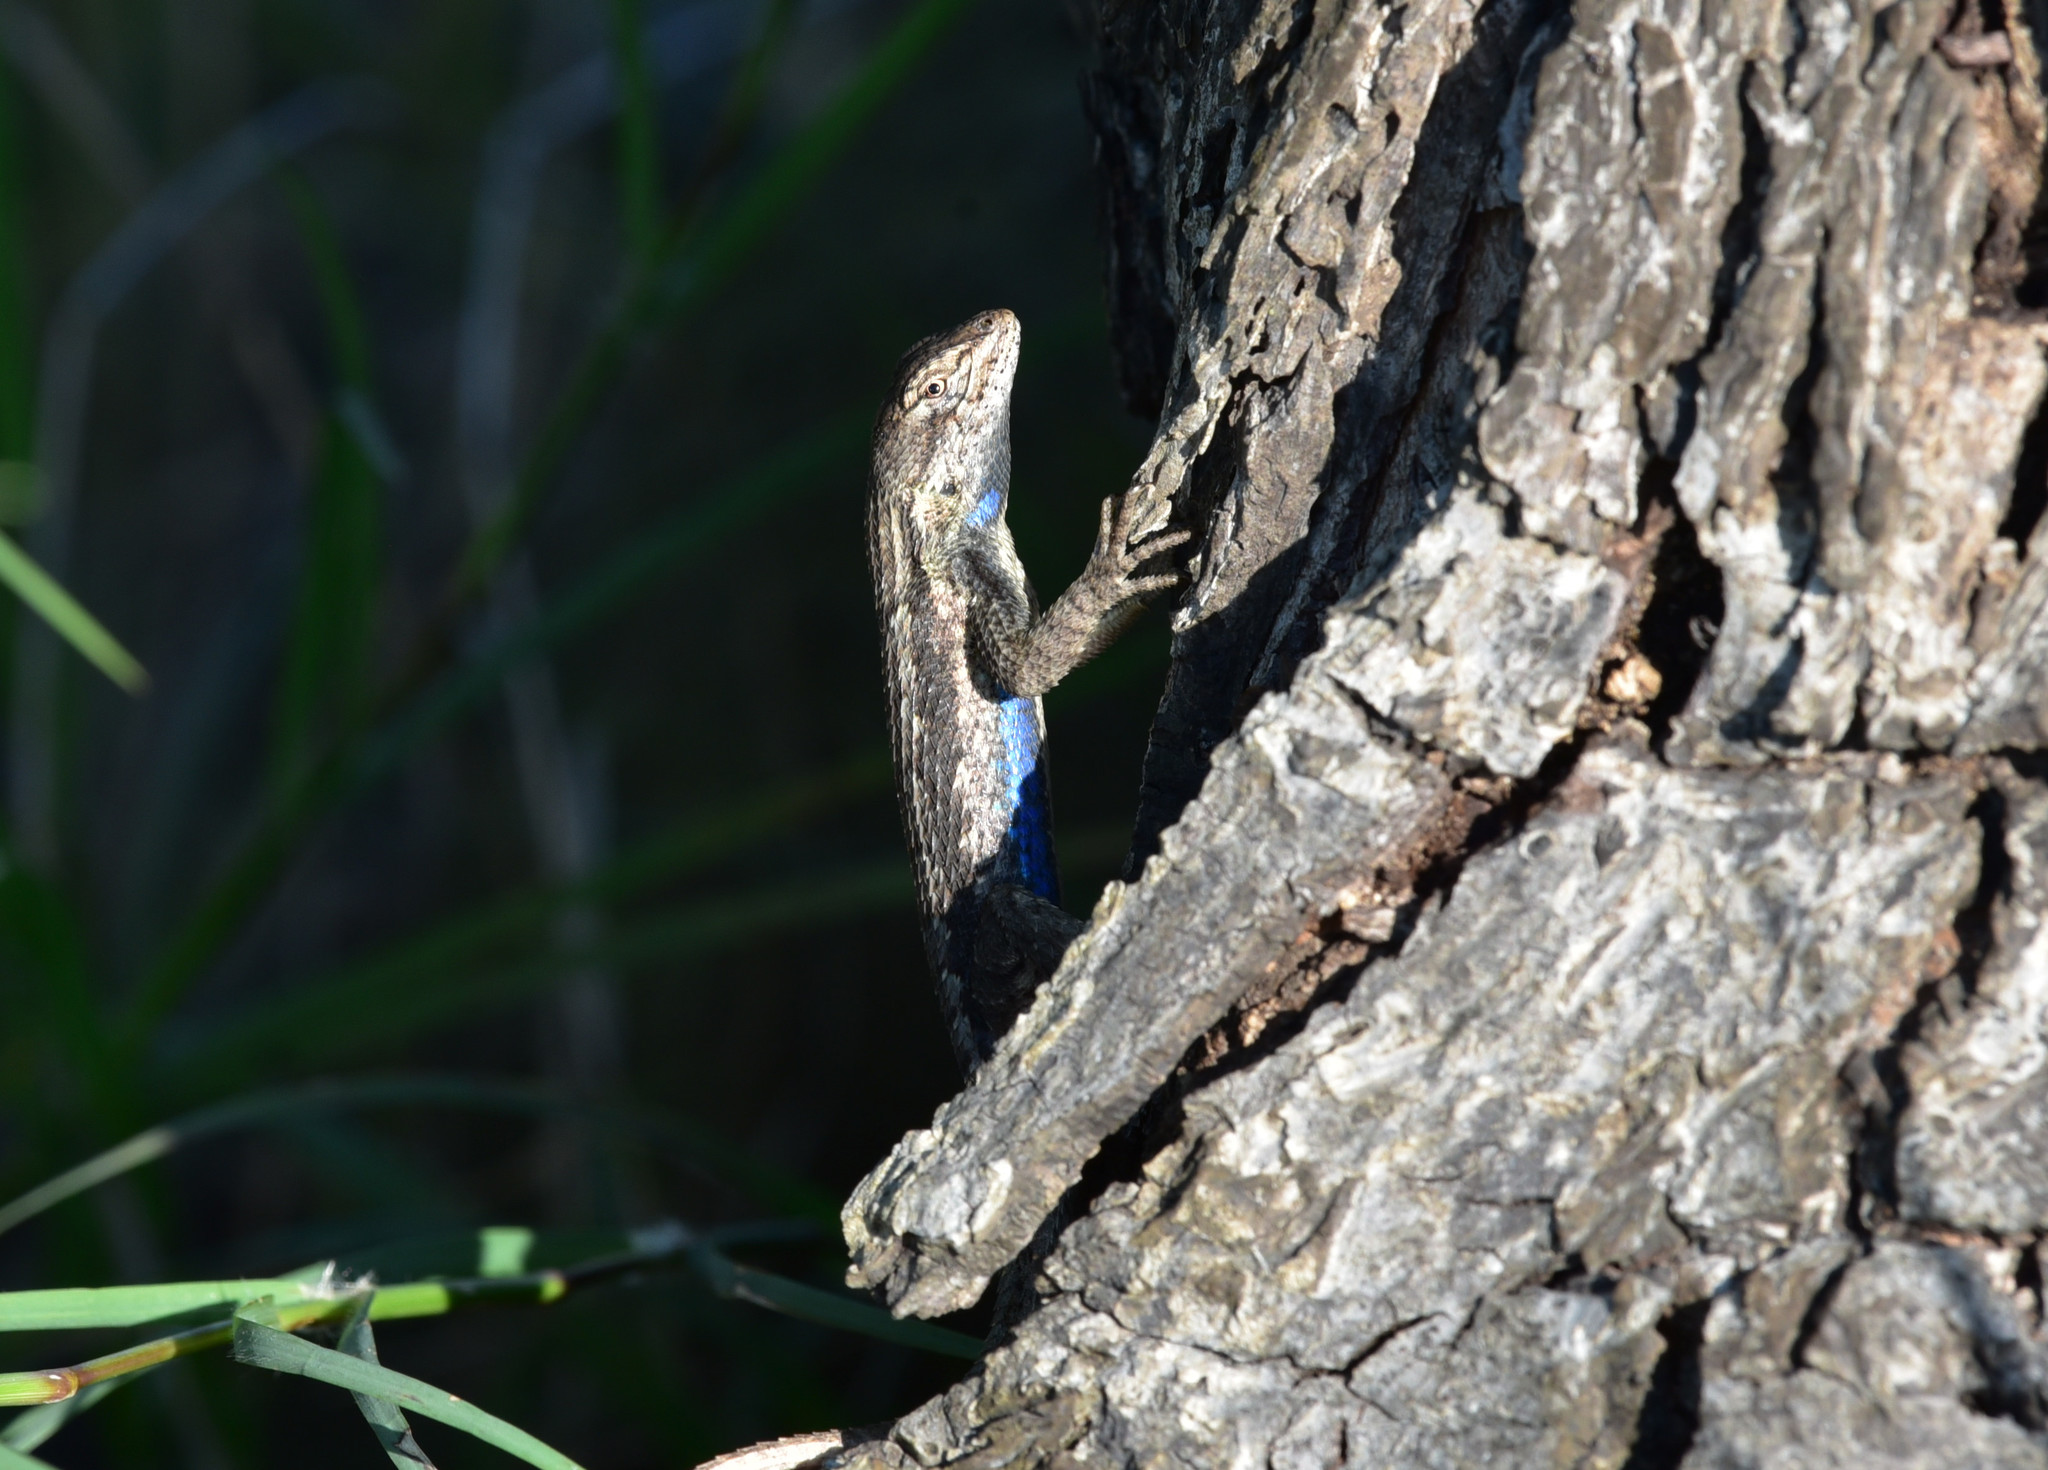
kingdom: Animalia
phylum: Chordata
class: Squamata
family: Phrynosomatidae
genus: Sceloporus
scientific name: Sceloporus consobrinus
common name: Southern prairie lizard
